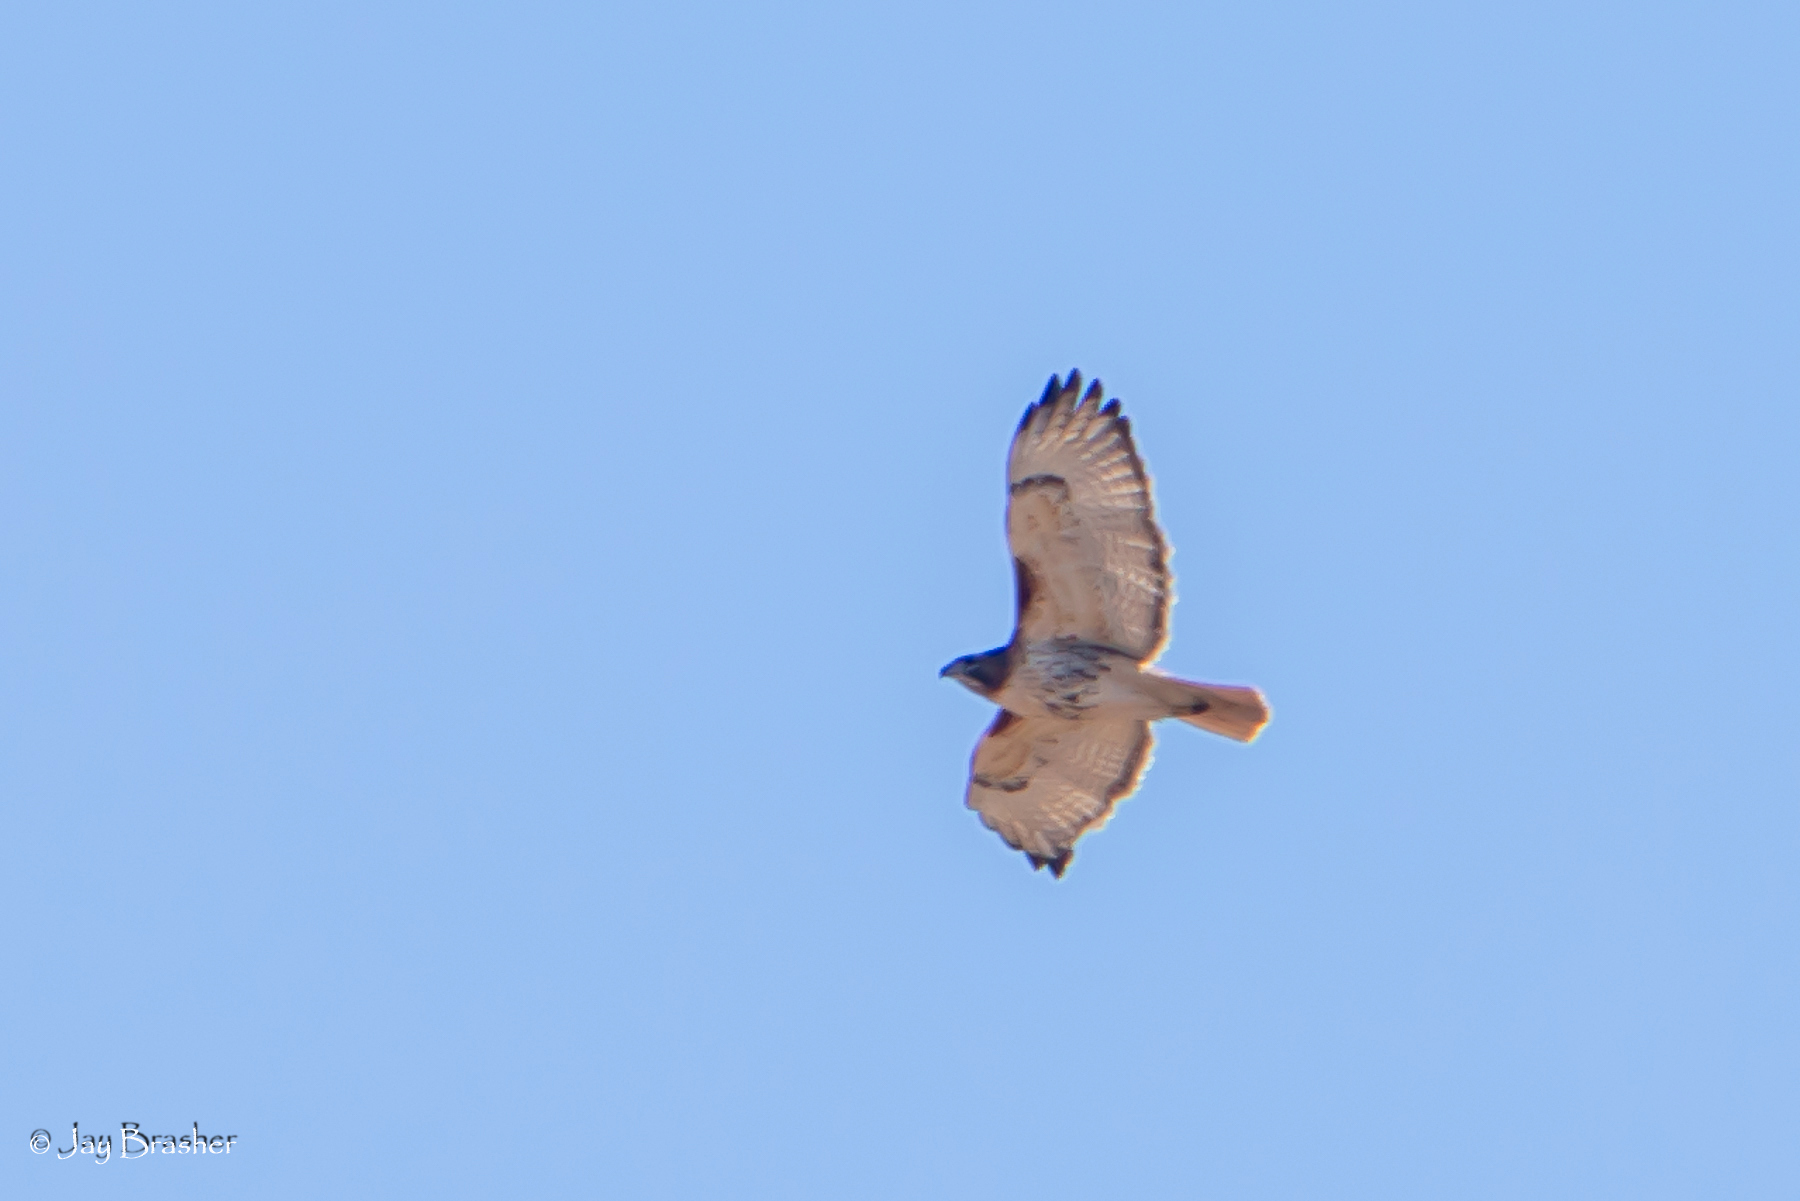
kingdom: Animalia
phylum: Chordata
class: Aves
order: Accipitriformes
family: Accipitridae
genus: Buteo
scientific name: Buteo jamaicensis
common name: Red-tailed hawk
